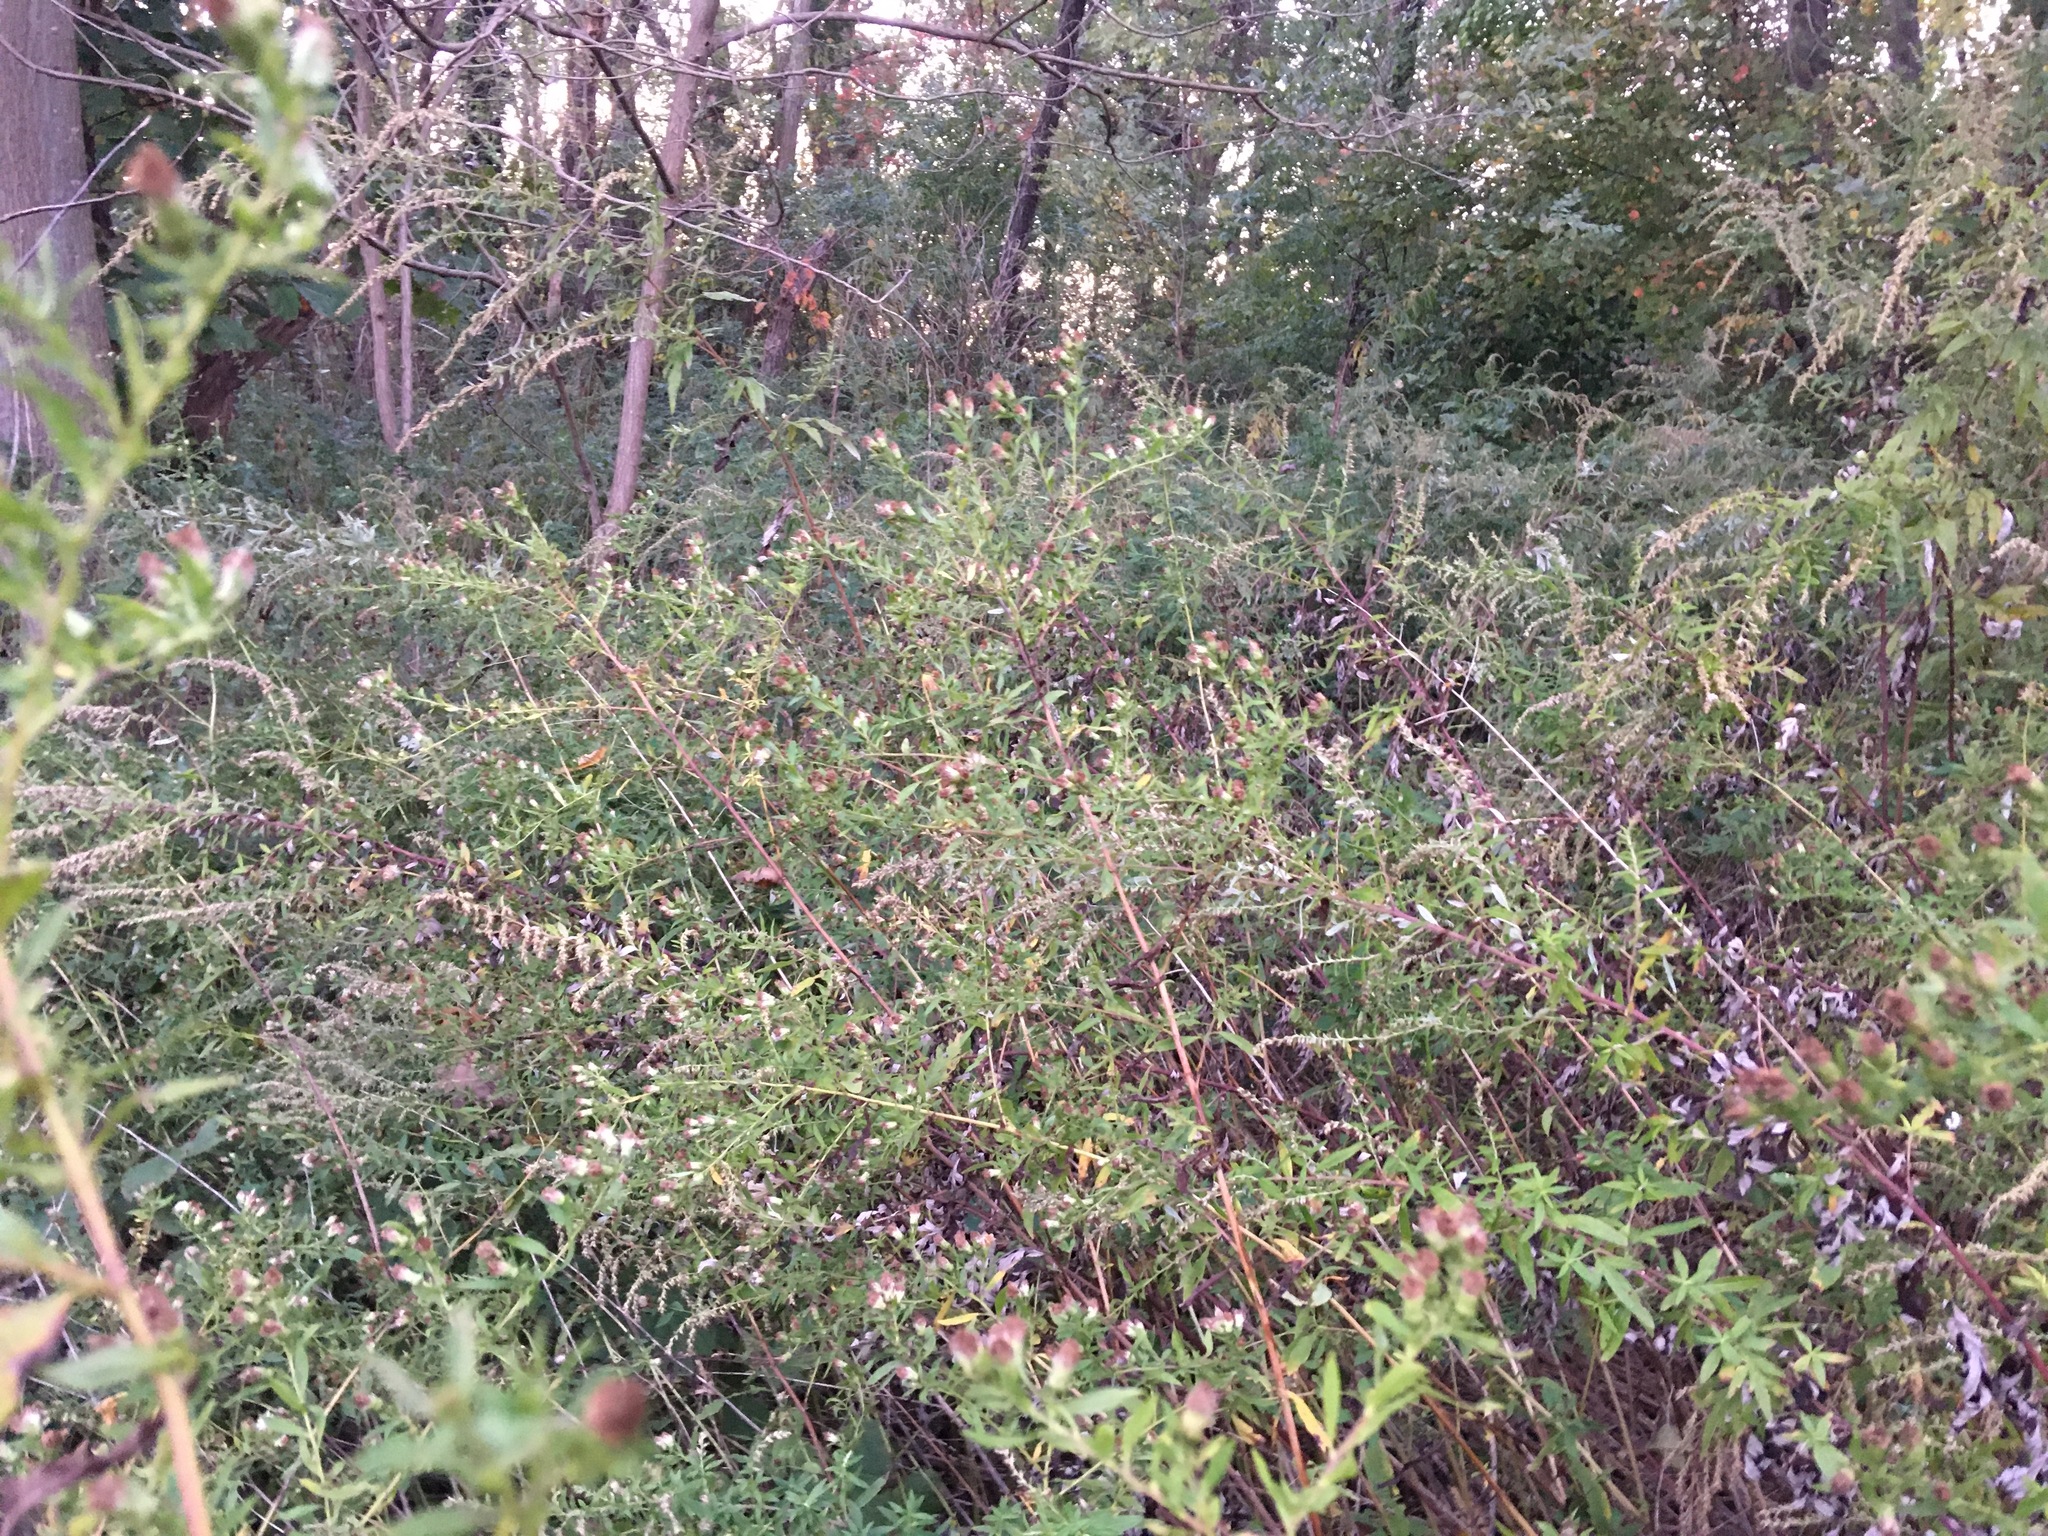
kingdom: Plantae
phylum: Tracheophyta
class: Magnoliopsida
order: Asterales
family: Asteraceae
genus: Artemisia
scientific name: Artemisia vulgaris
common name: Mugwort
